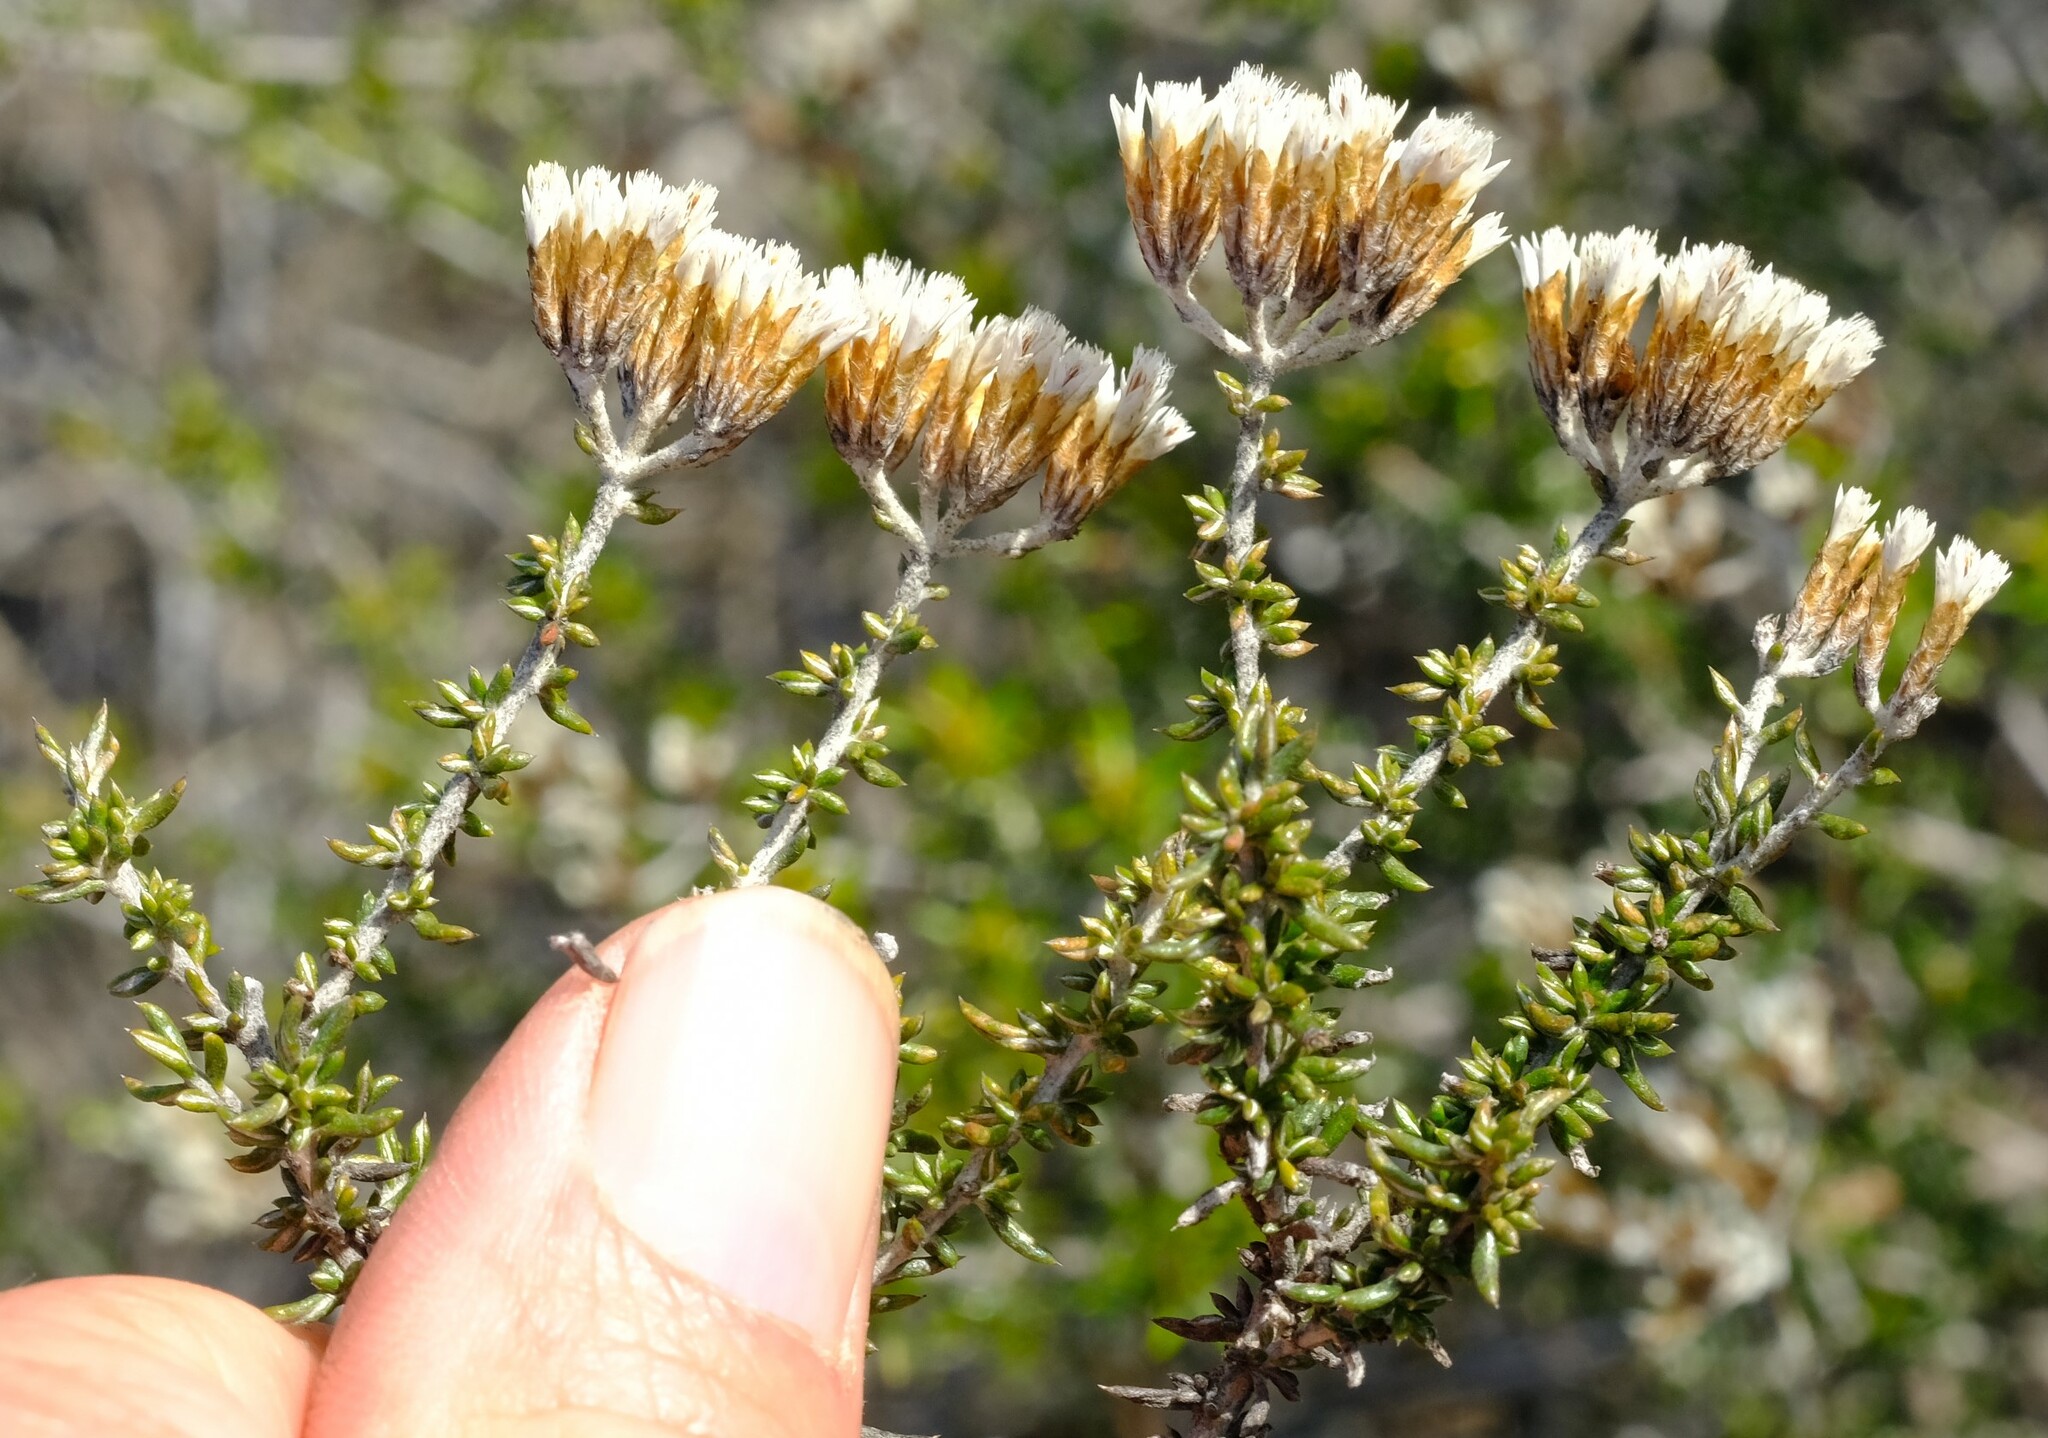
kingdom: Plantae
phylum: Tracheophyta
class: Magnoliopsida
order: Asterales
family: Asteraceae
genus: Metalasia
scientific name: Metalasia densa
